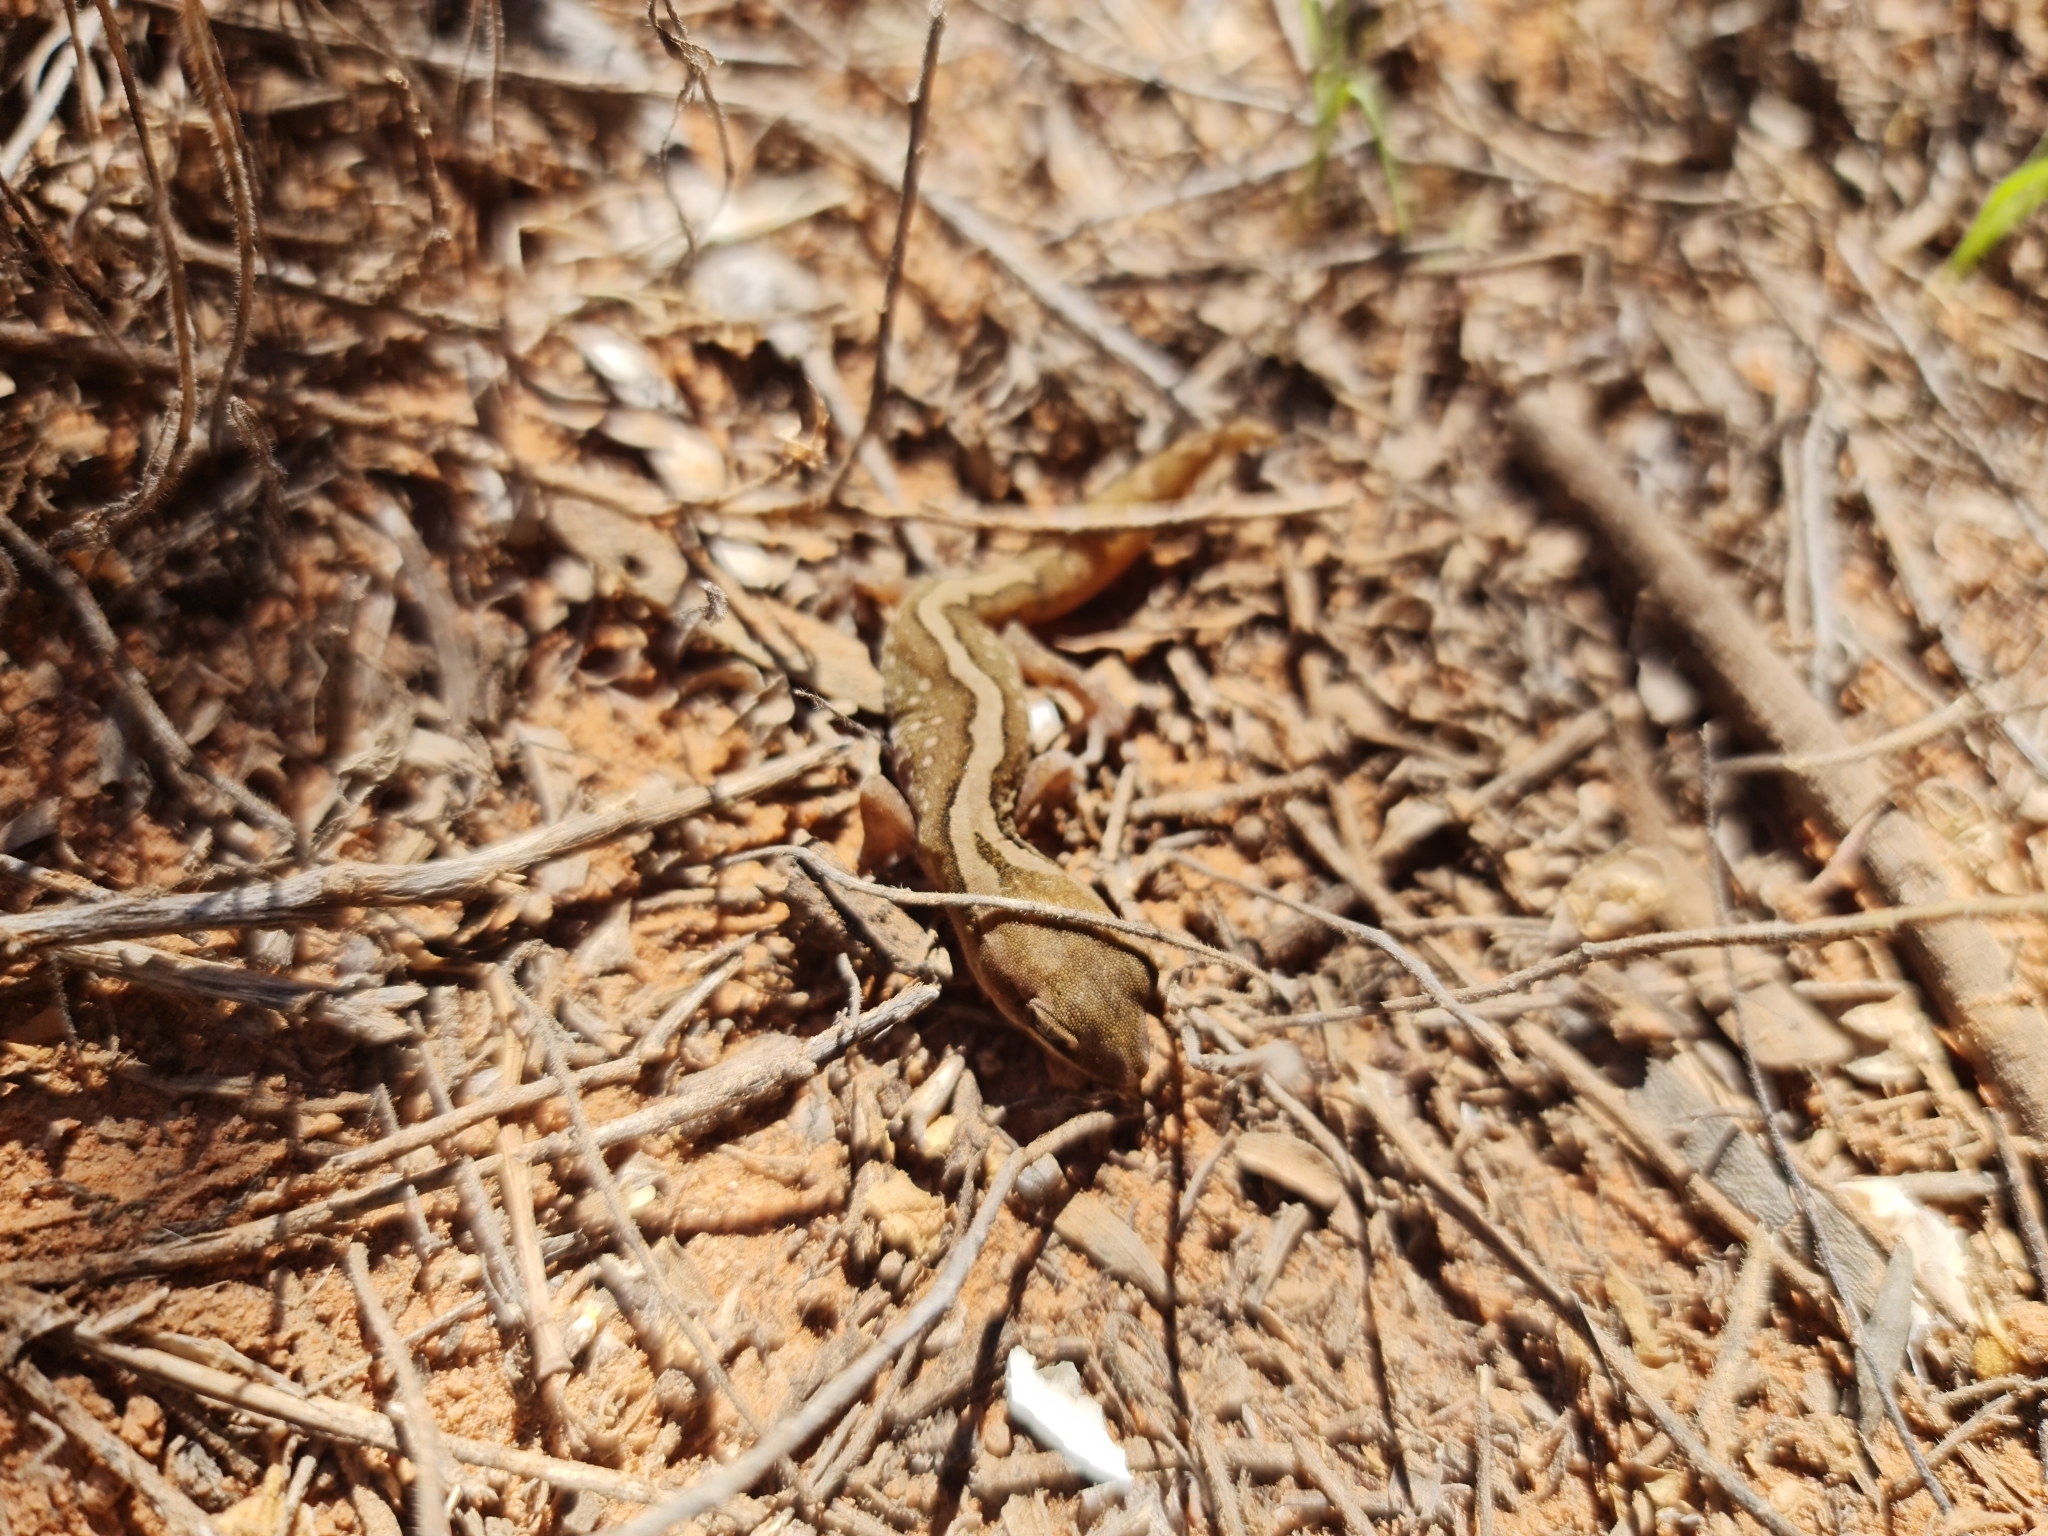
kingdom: Animalia
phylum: Chordata
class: Squamata
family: Diplodactylidae
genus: Diplodactylus
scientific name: Diplodactylus furcosus
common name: Ranges stone gecko
